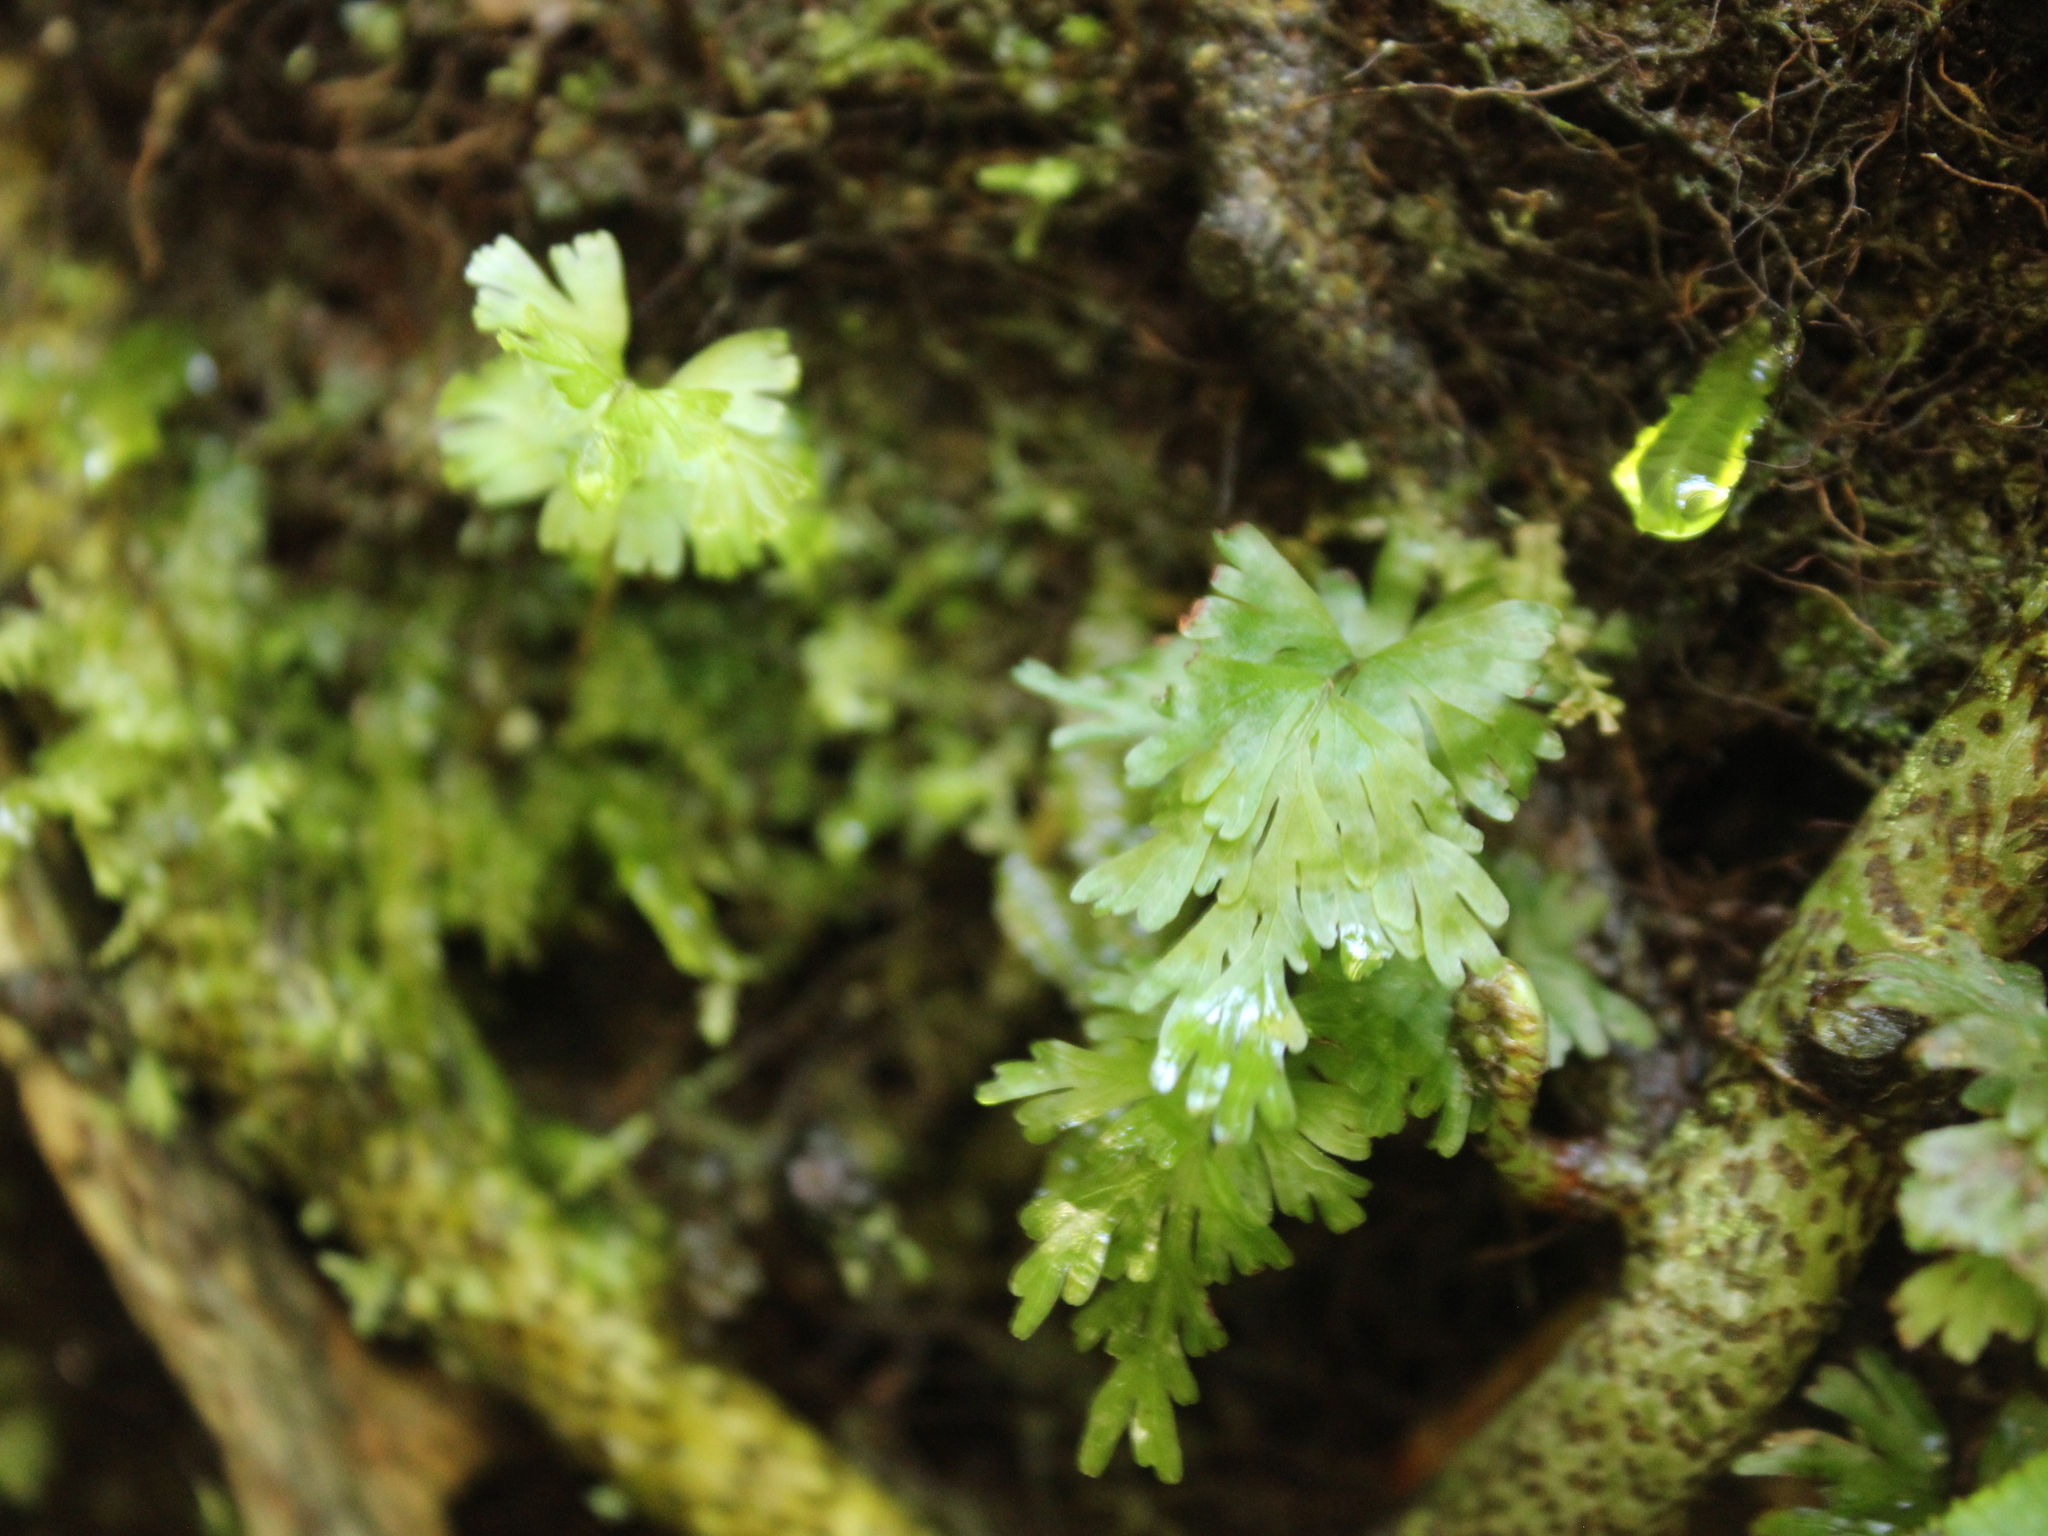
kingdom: Plantae
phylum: Tracheophyta
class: Polypodiopsida
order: Hymenophyllales
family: Hymenophyllaceae
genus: Hymenophyllum
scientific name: Hymenophyllum flabellatum
